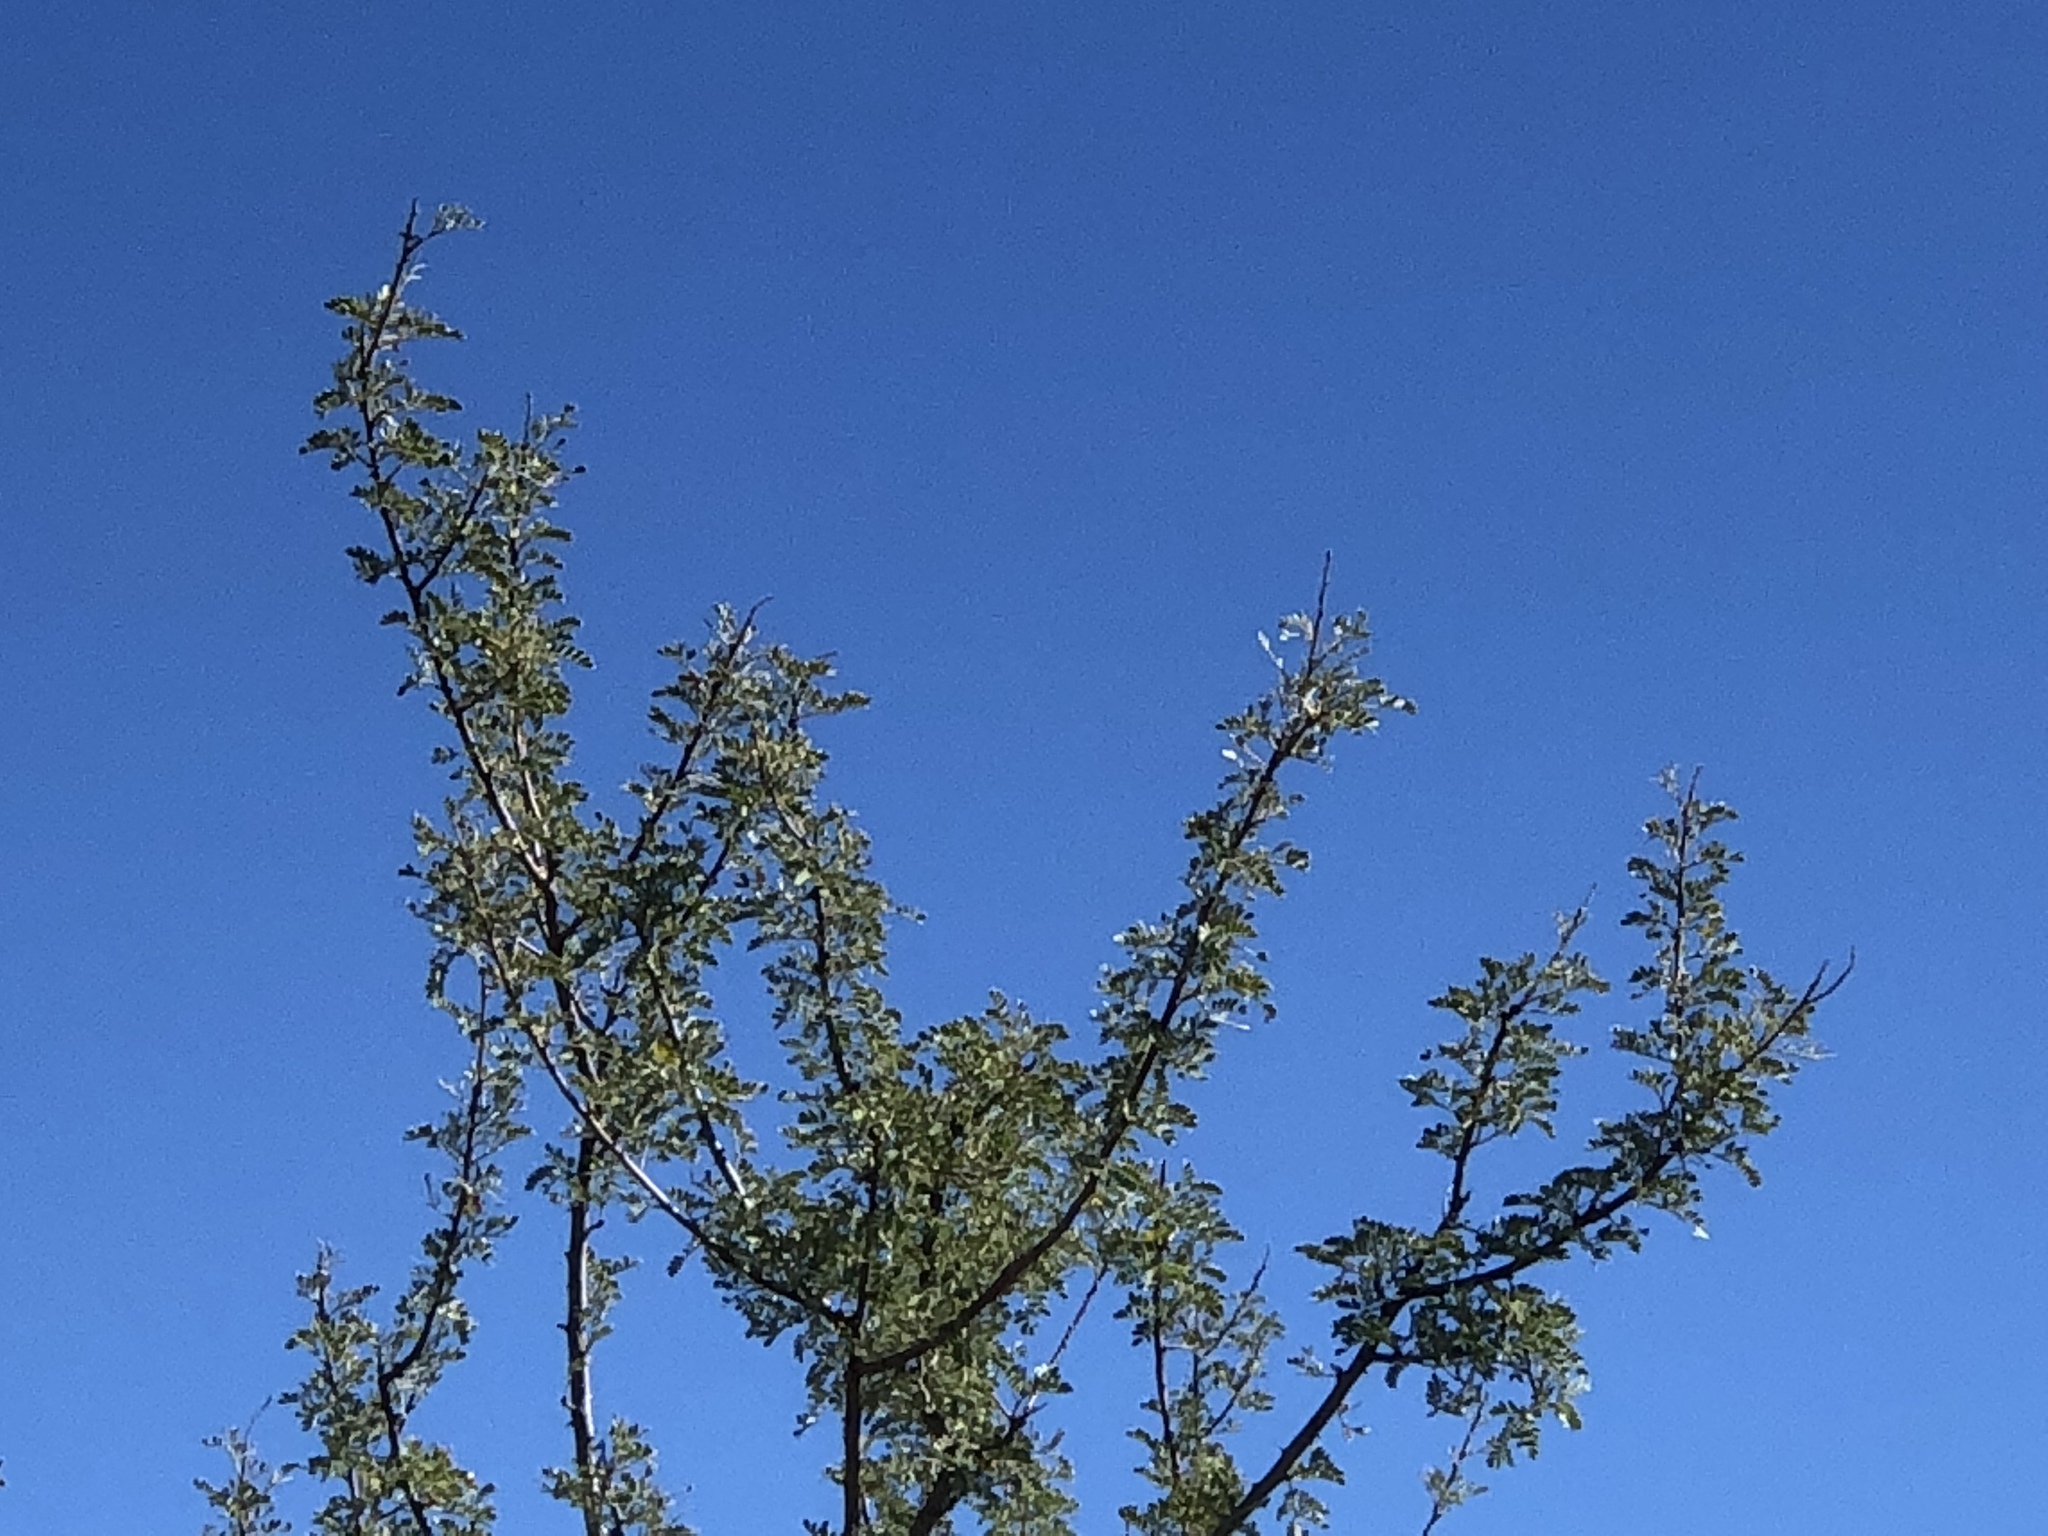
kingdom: Plantae
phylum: Tracheophyta
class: Magnoliopsida
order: Fabales
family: Fabaceae
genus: Senegalia
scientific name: Senegalia greggii
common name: Texas-mimosa
